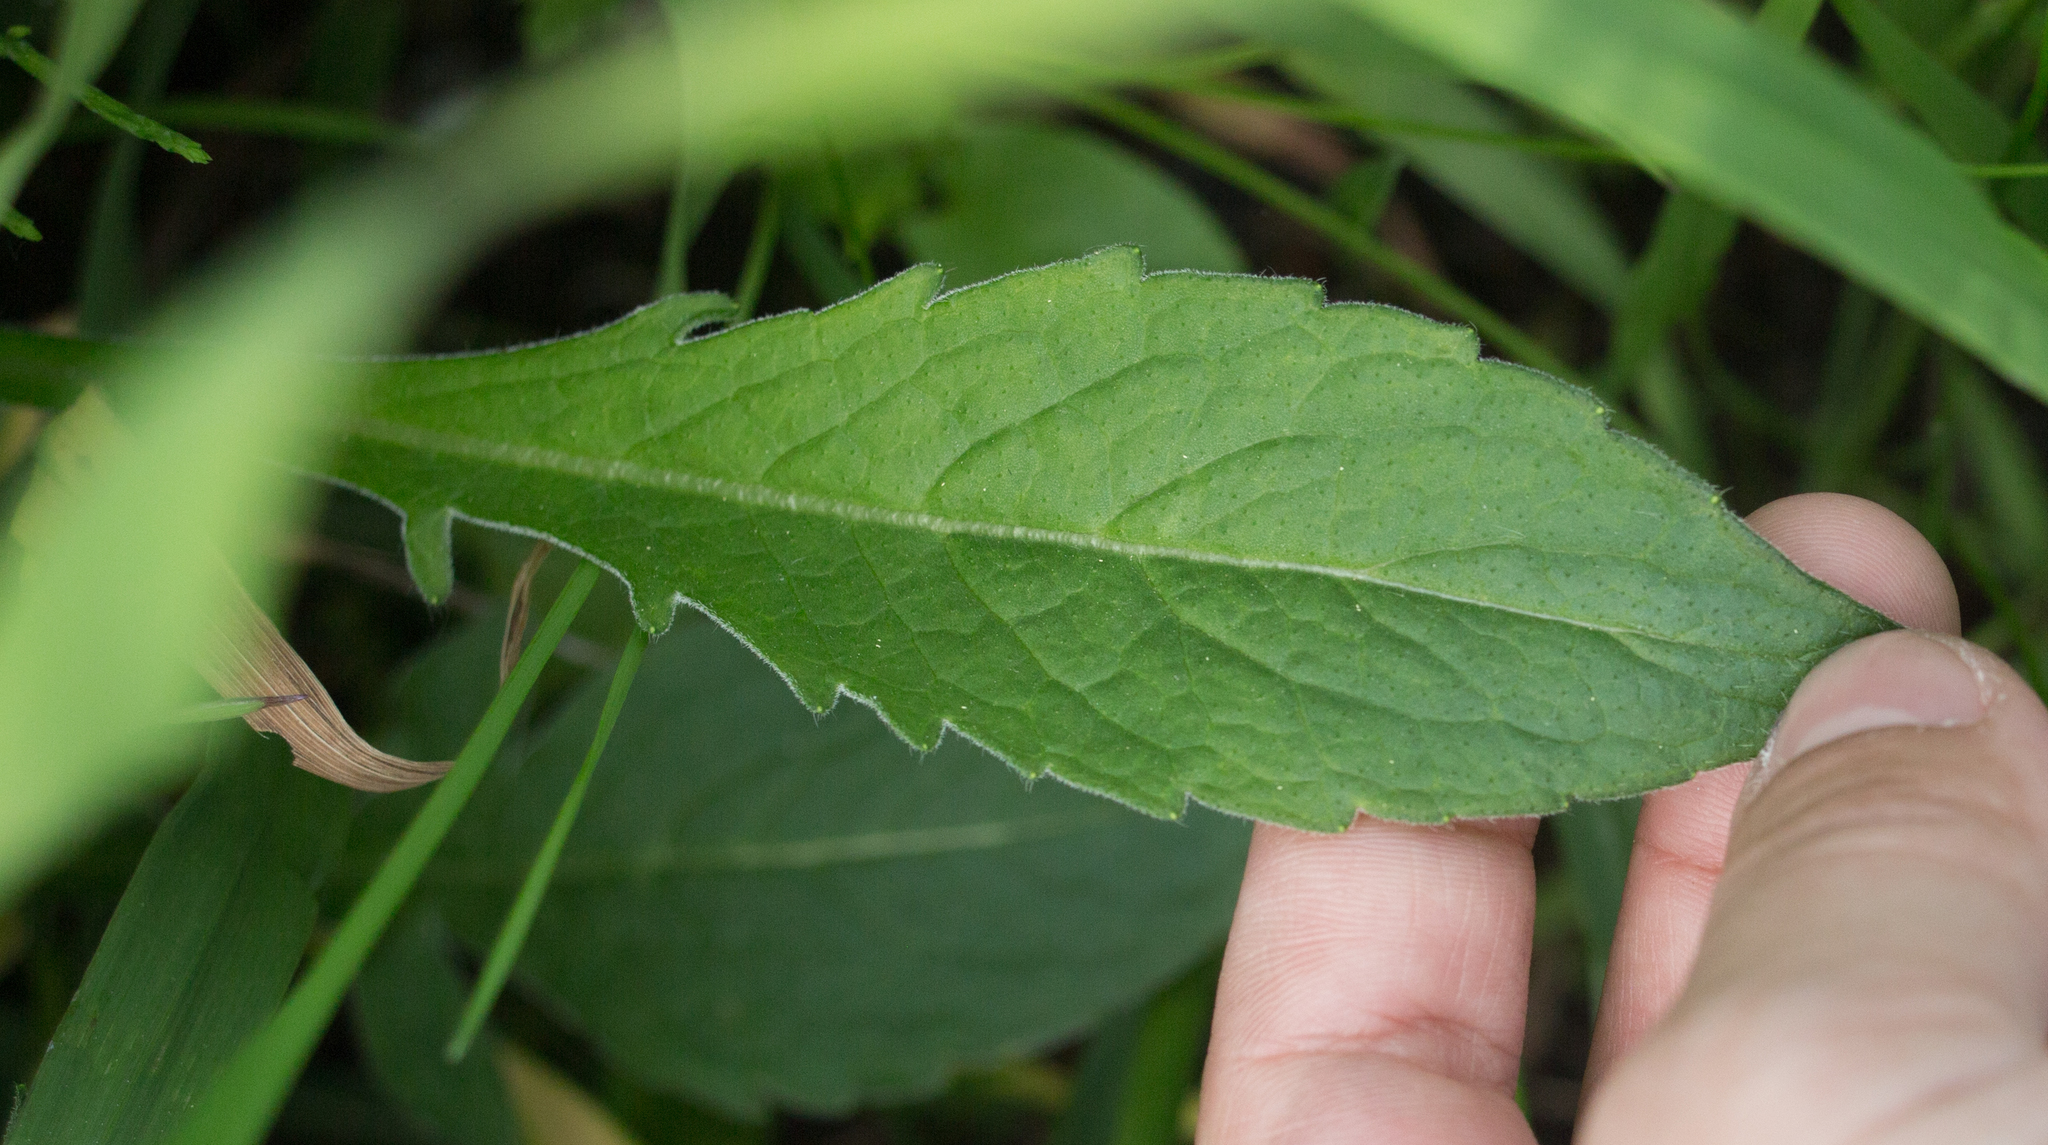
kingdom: Plantae
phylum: Tracheophyta
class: Magnoliopsida
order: Dipsacales
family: Caprifoliaceae
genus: Knautia
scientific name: Knautia arvensis
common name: Field scabiosa
